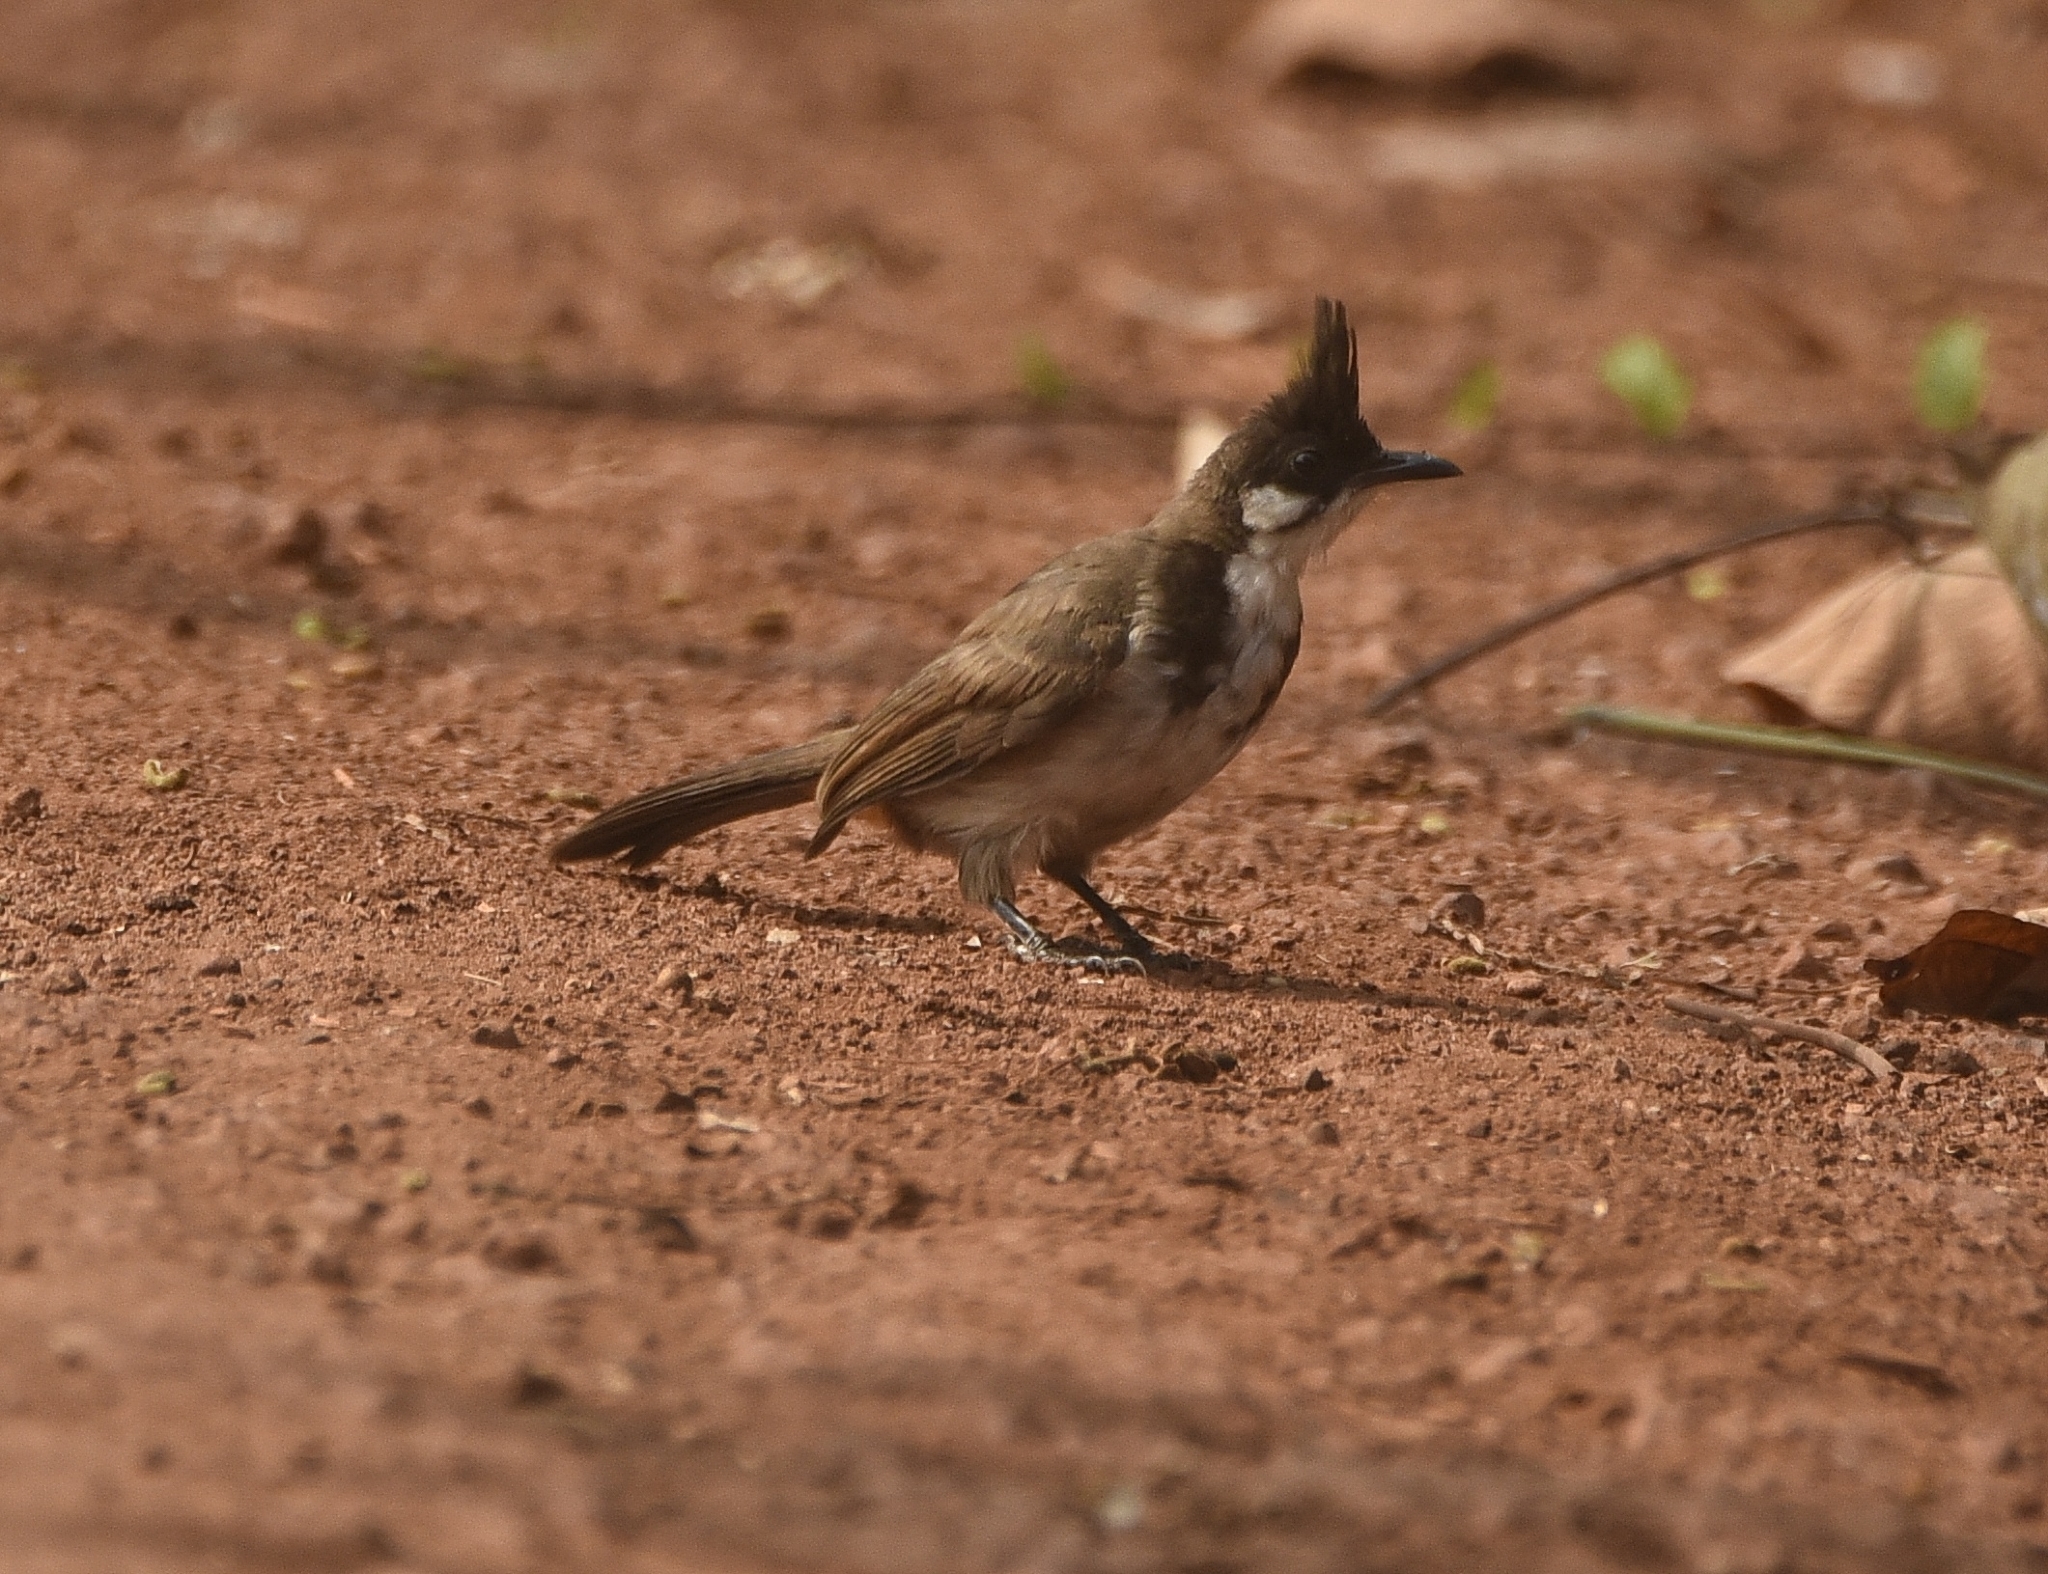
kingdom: Animalia
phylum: Chordata
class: Aves
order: Passeriformes
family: Pycnonotidae
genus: Pycnonotus
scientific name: Pycnonotus jocosus
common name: Red-whiskered bulbul
